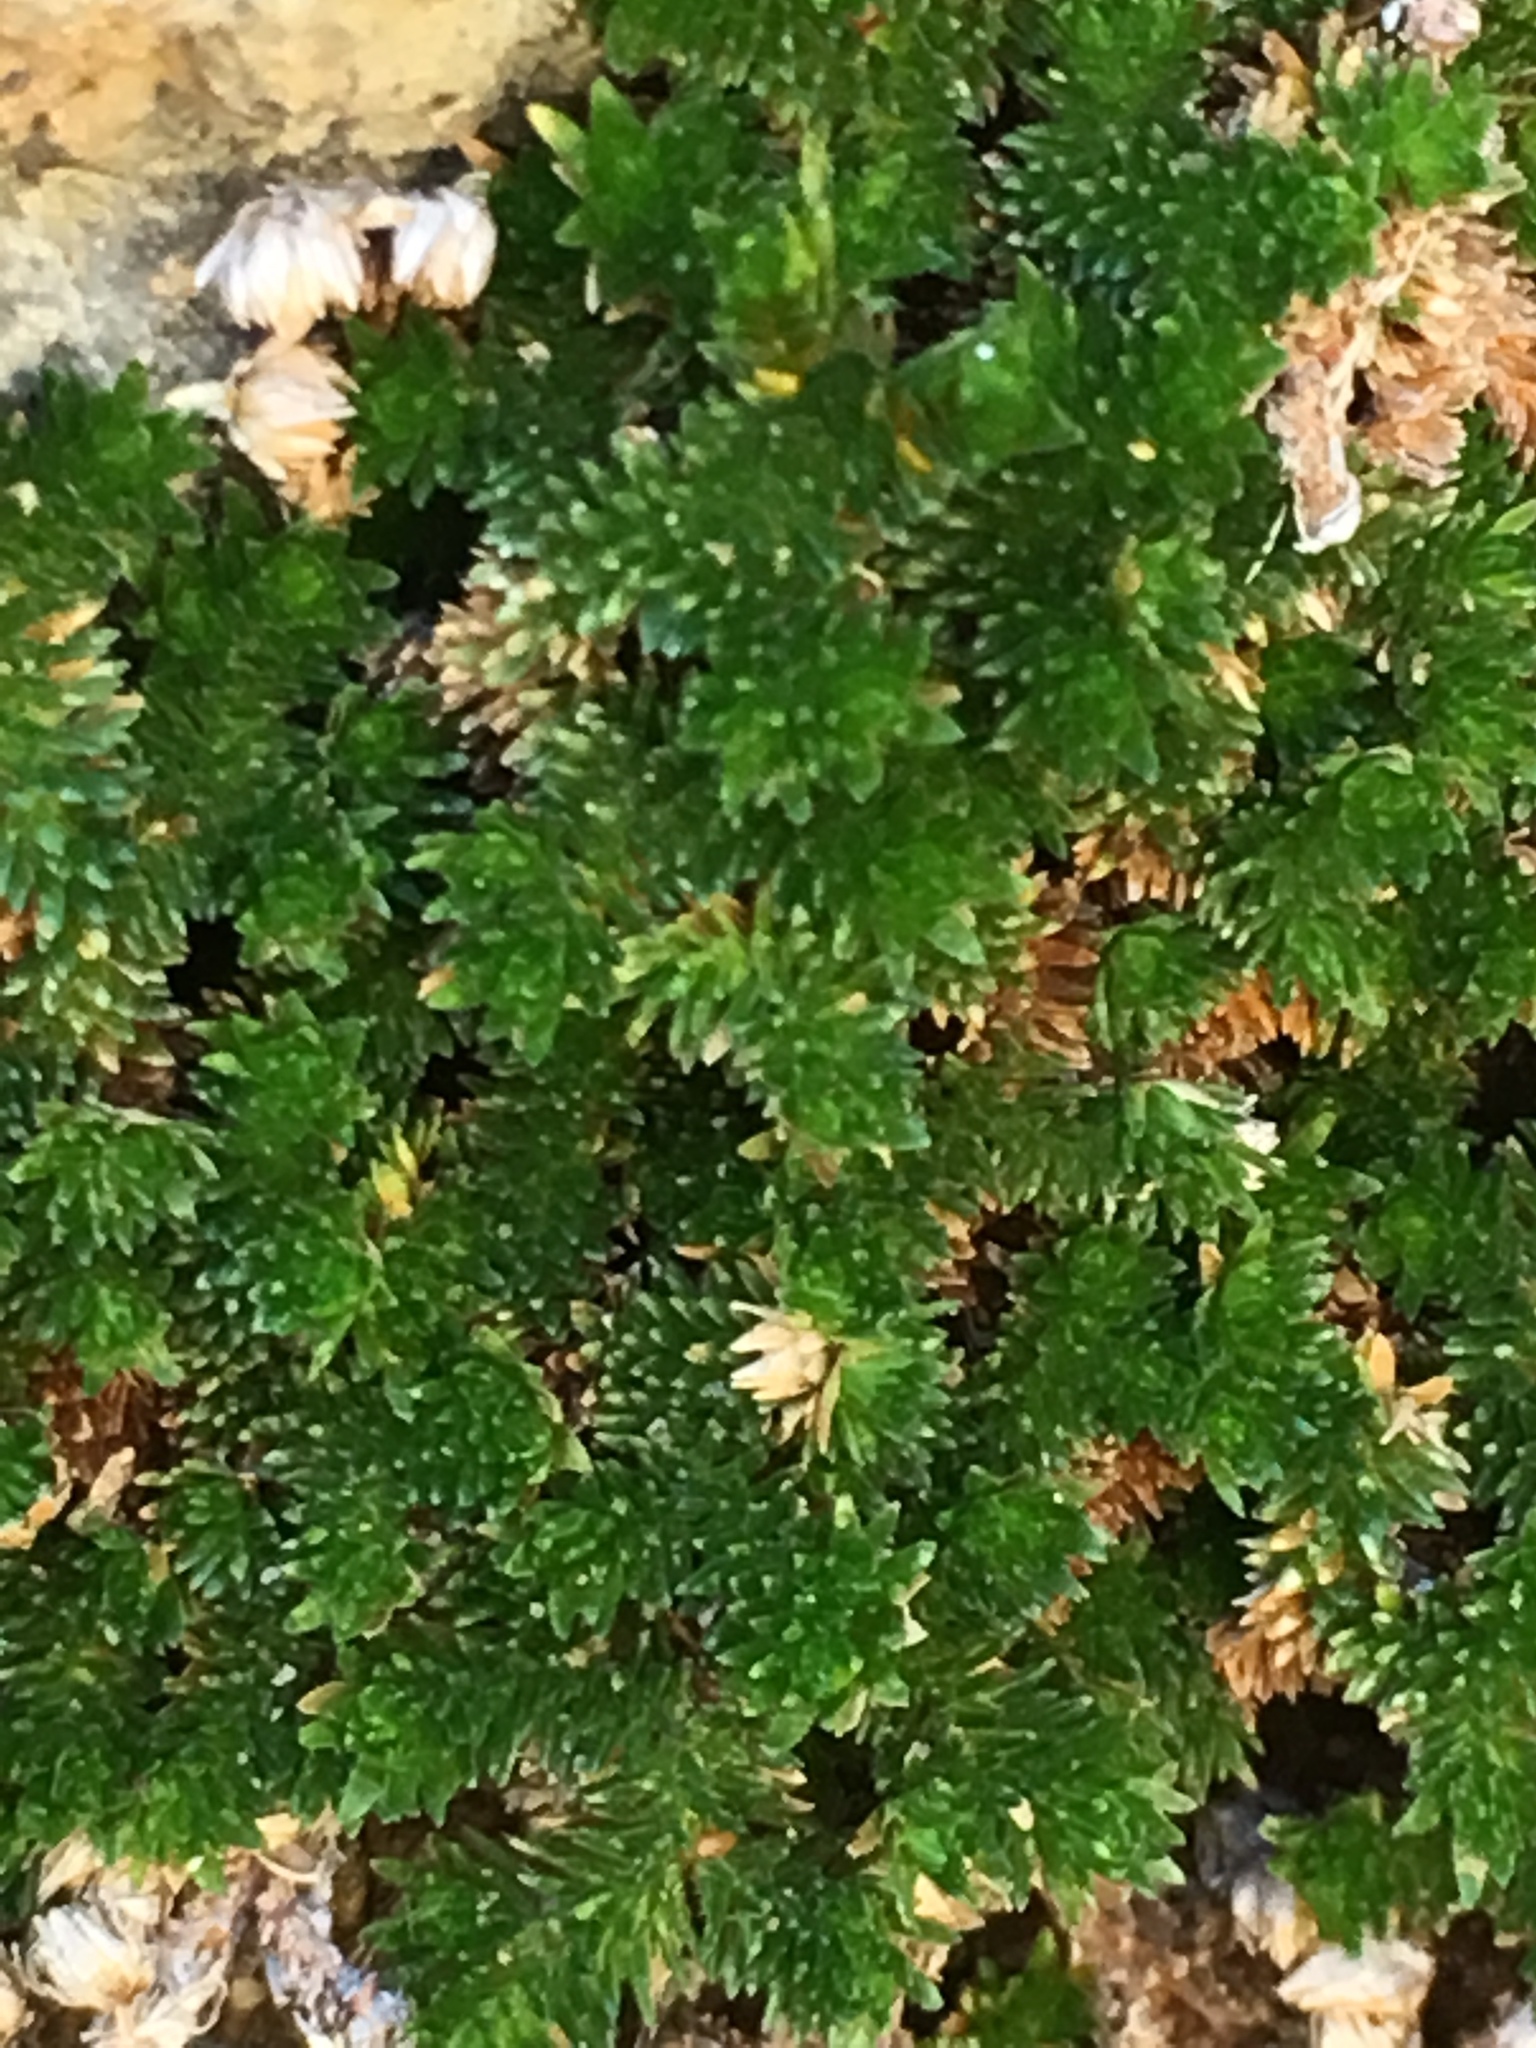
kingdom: Plantae
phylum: Tracheophyta
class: Lycopodiopsida
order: Selaginellales
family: Selaginellaceae
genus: Selaginella
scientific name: Selaginella eremophila
